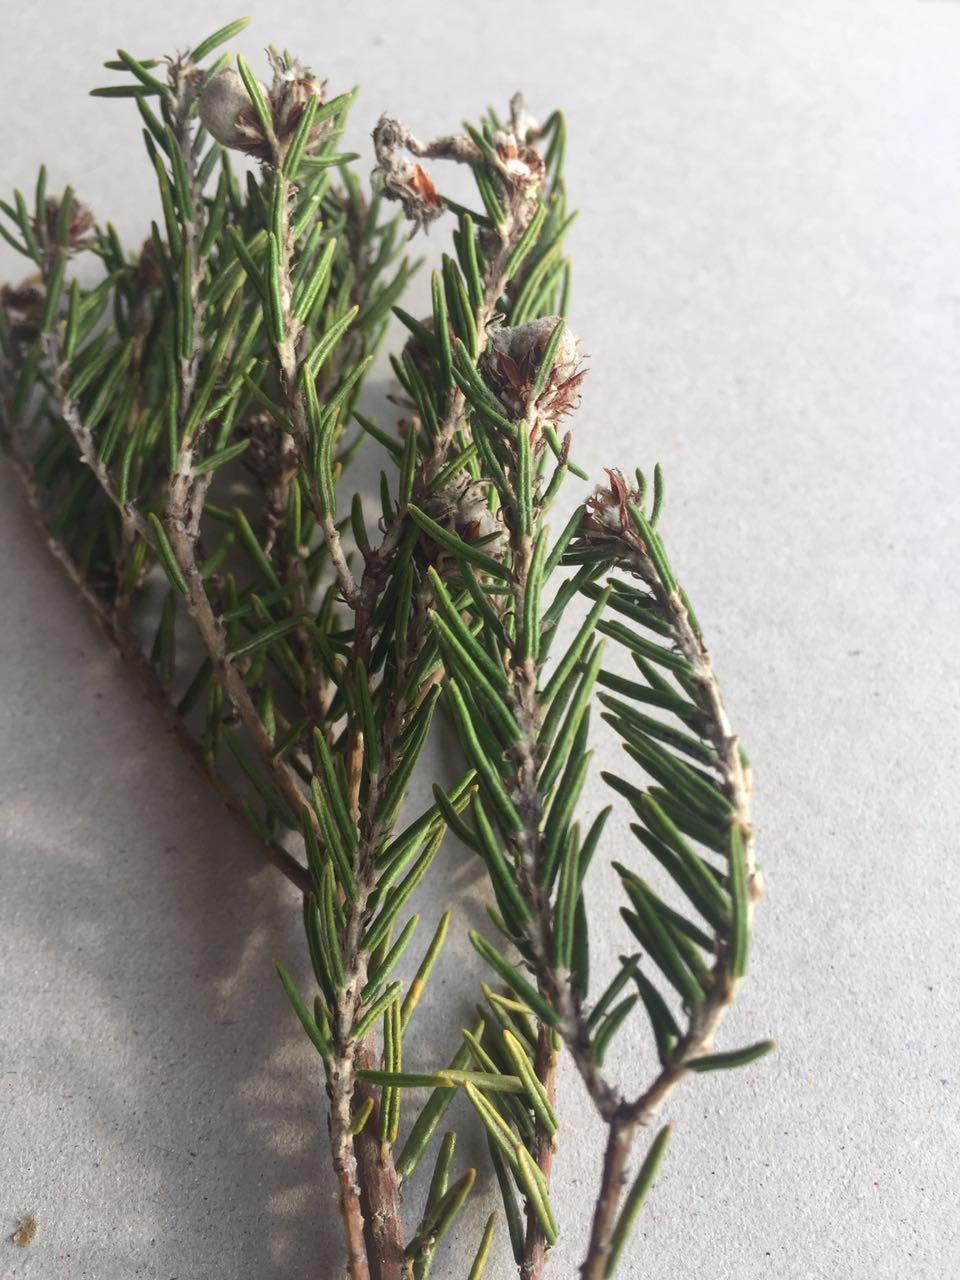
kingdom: Plantae
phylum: Tracheophyta
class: Magnoliopsida
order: Rosales
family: Rhamnaceae
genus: Trichocephalus
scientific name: Trichocephalus stipularis
